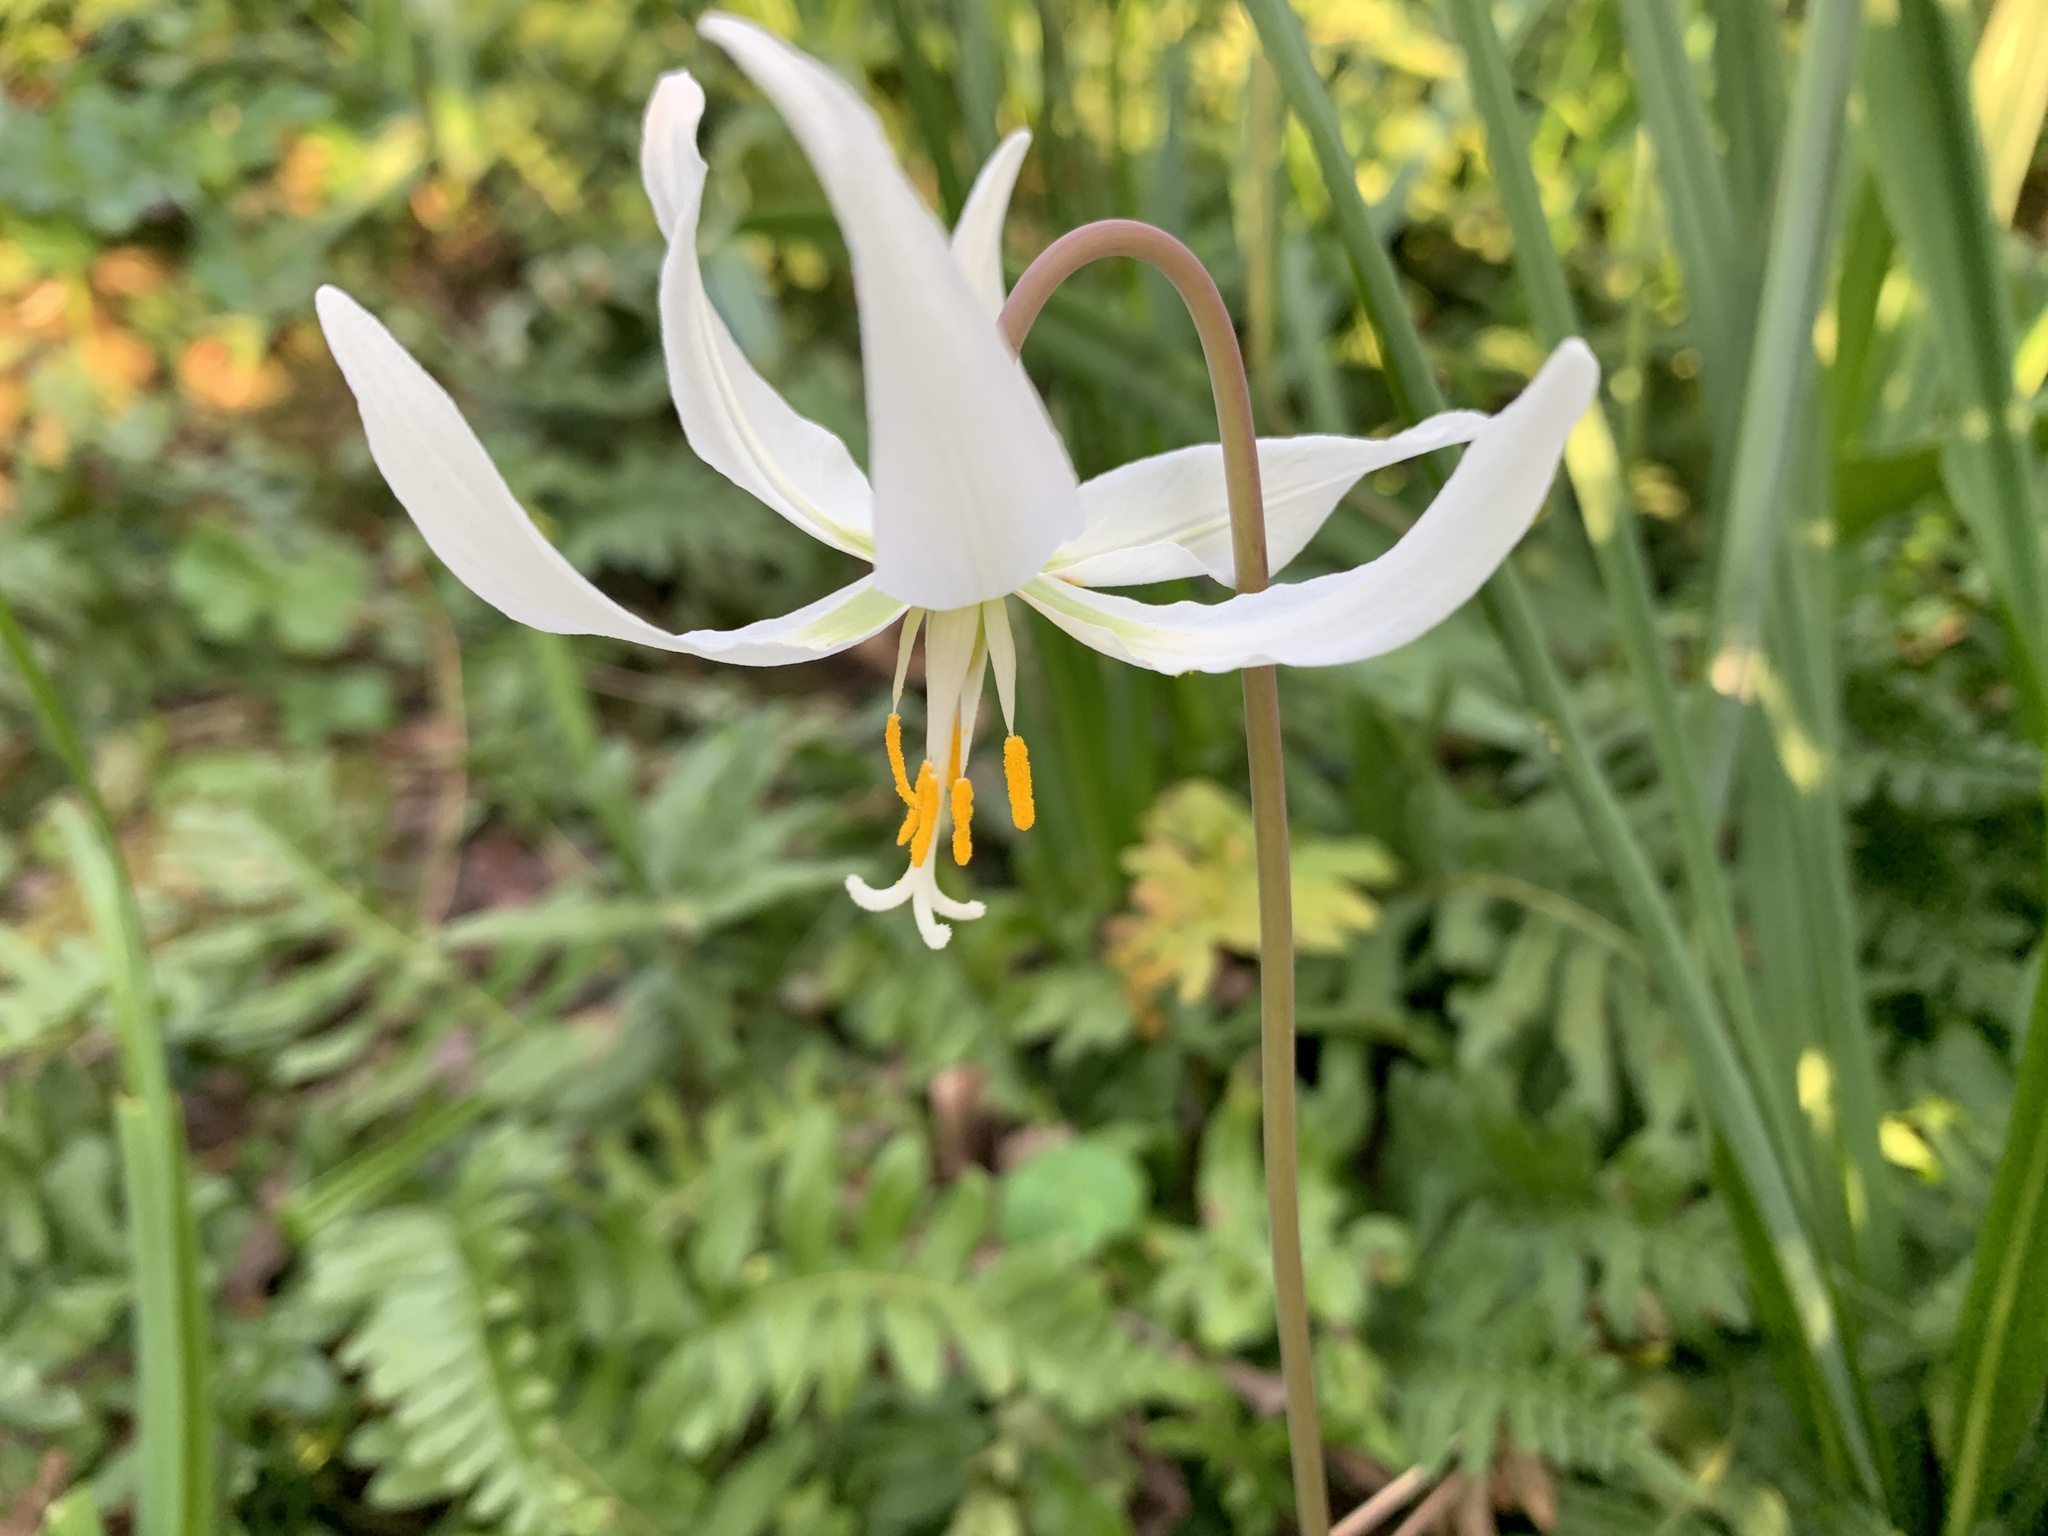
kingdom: Plantae
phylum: Tracheophyta
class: Liliopsida
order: Liliales
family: Liliaceae
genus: Erythronium
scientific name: Erythronium oregonum
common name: Giant adder's-tongue
